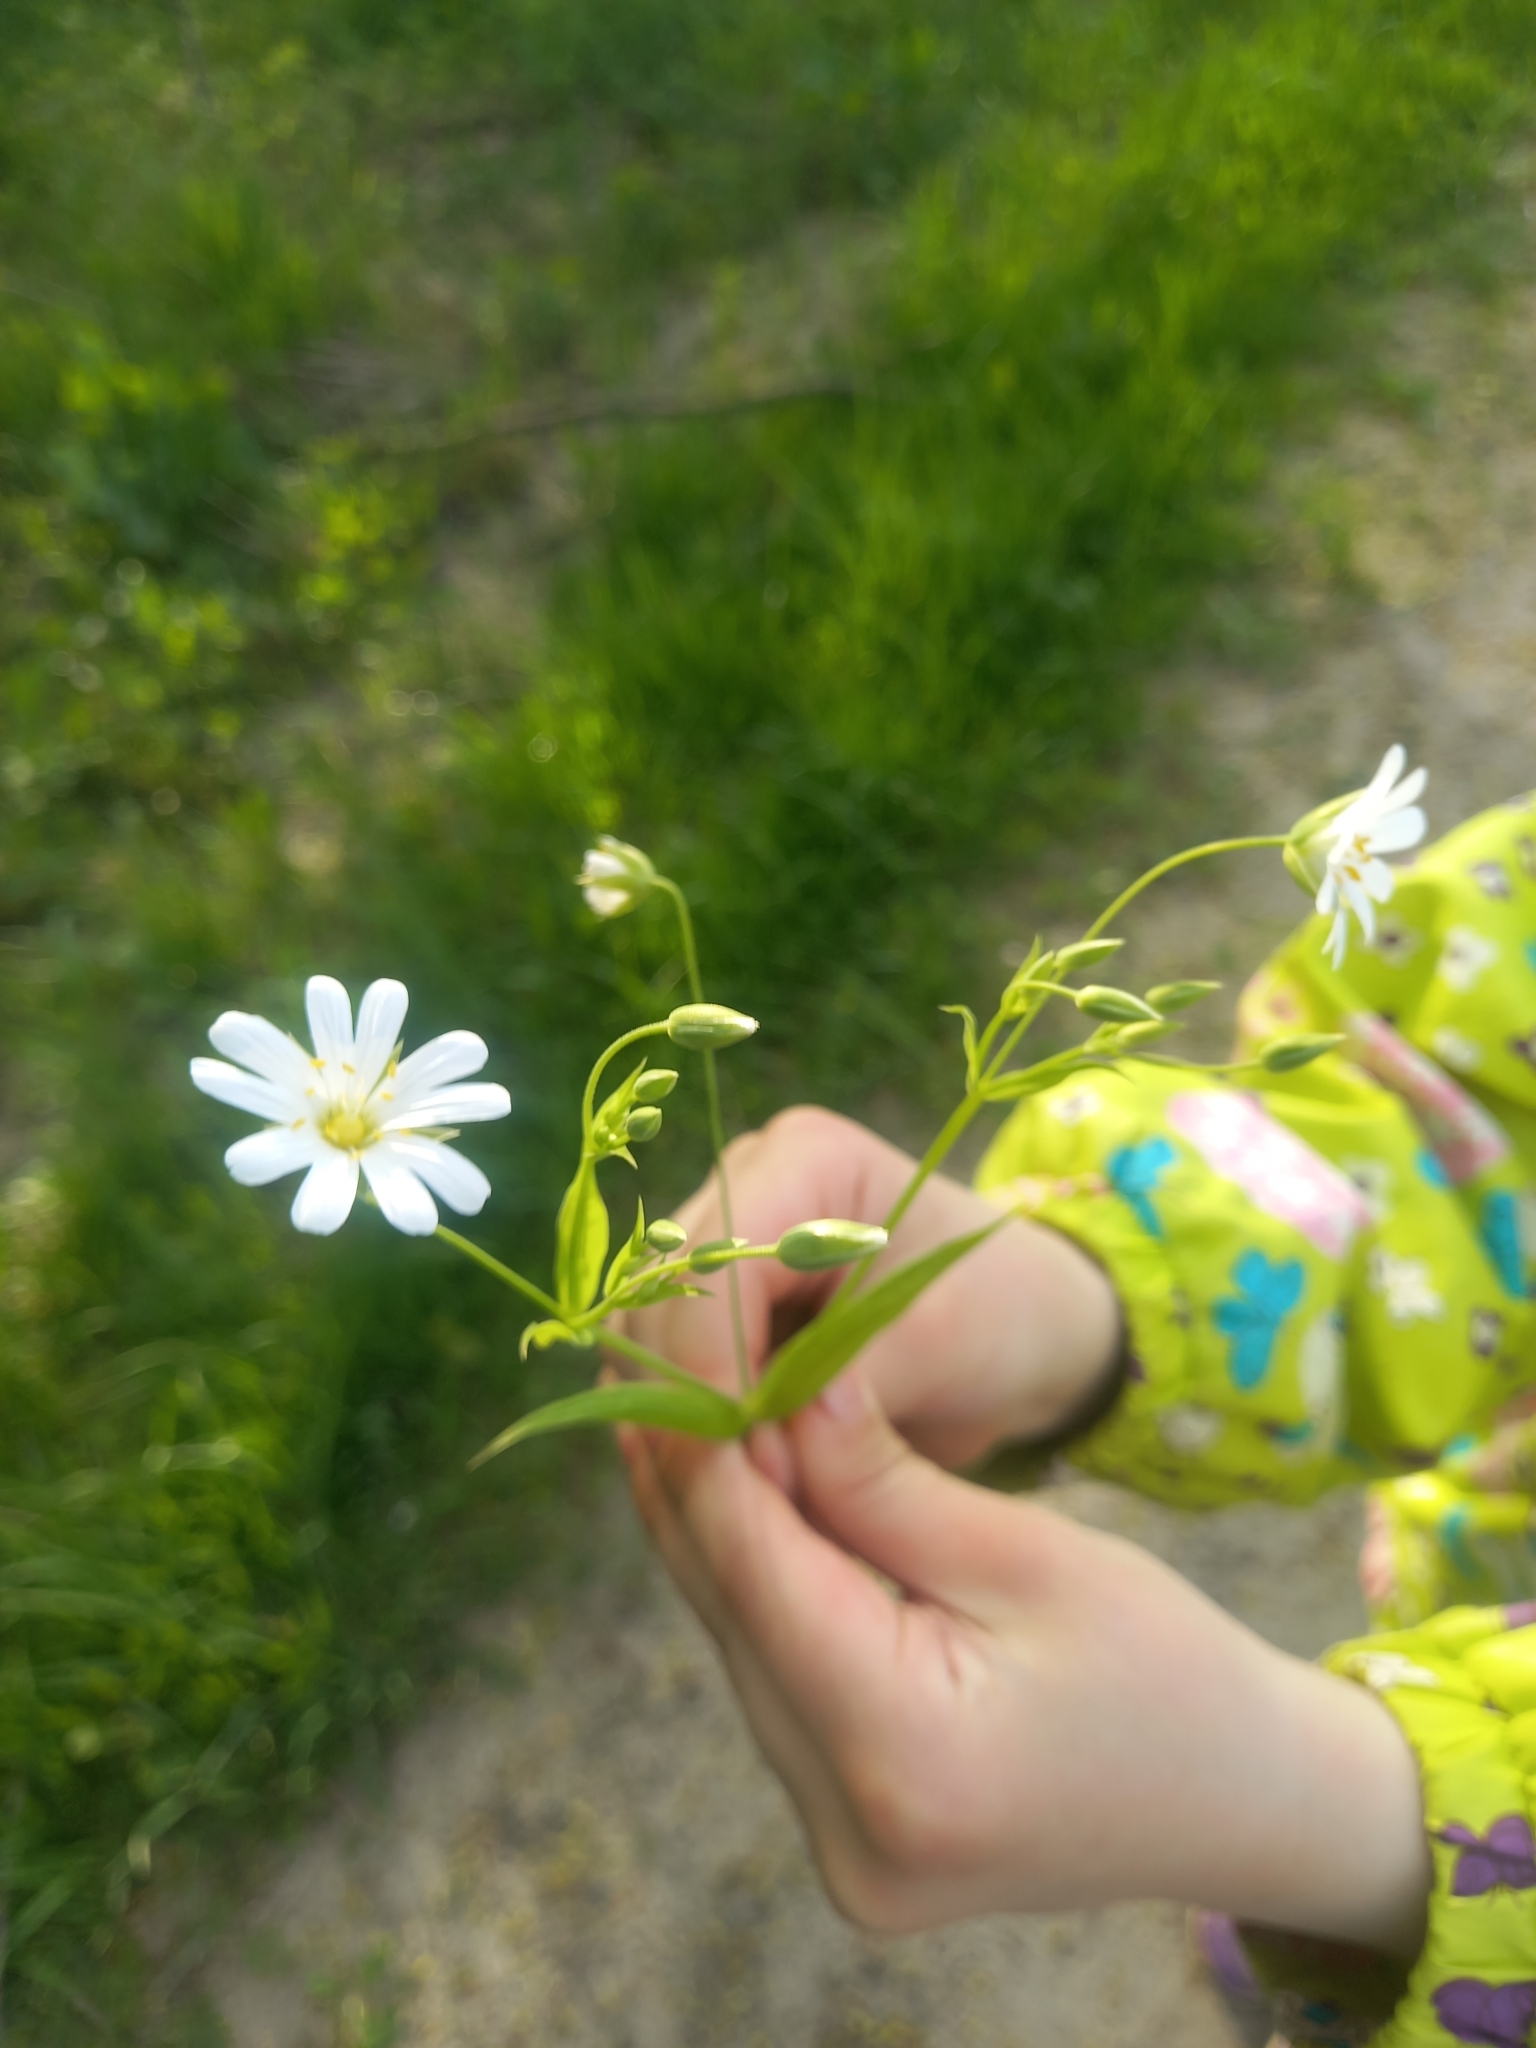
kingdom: Plantae
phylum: Tracheophyta
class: Magnoliopsida
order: Caryophyllales
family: Caryophyllaceae
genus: Rabelera
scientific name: Rabelera holostea
